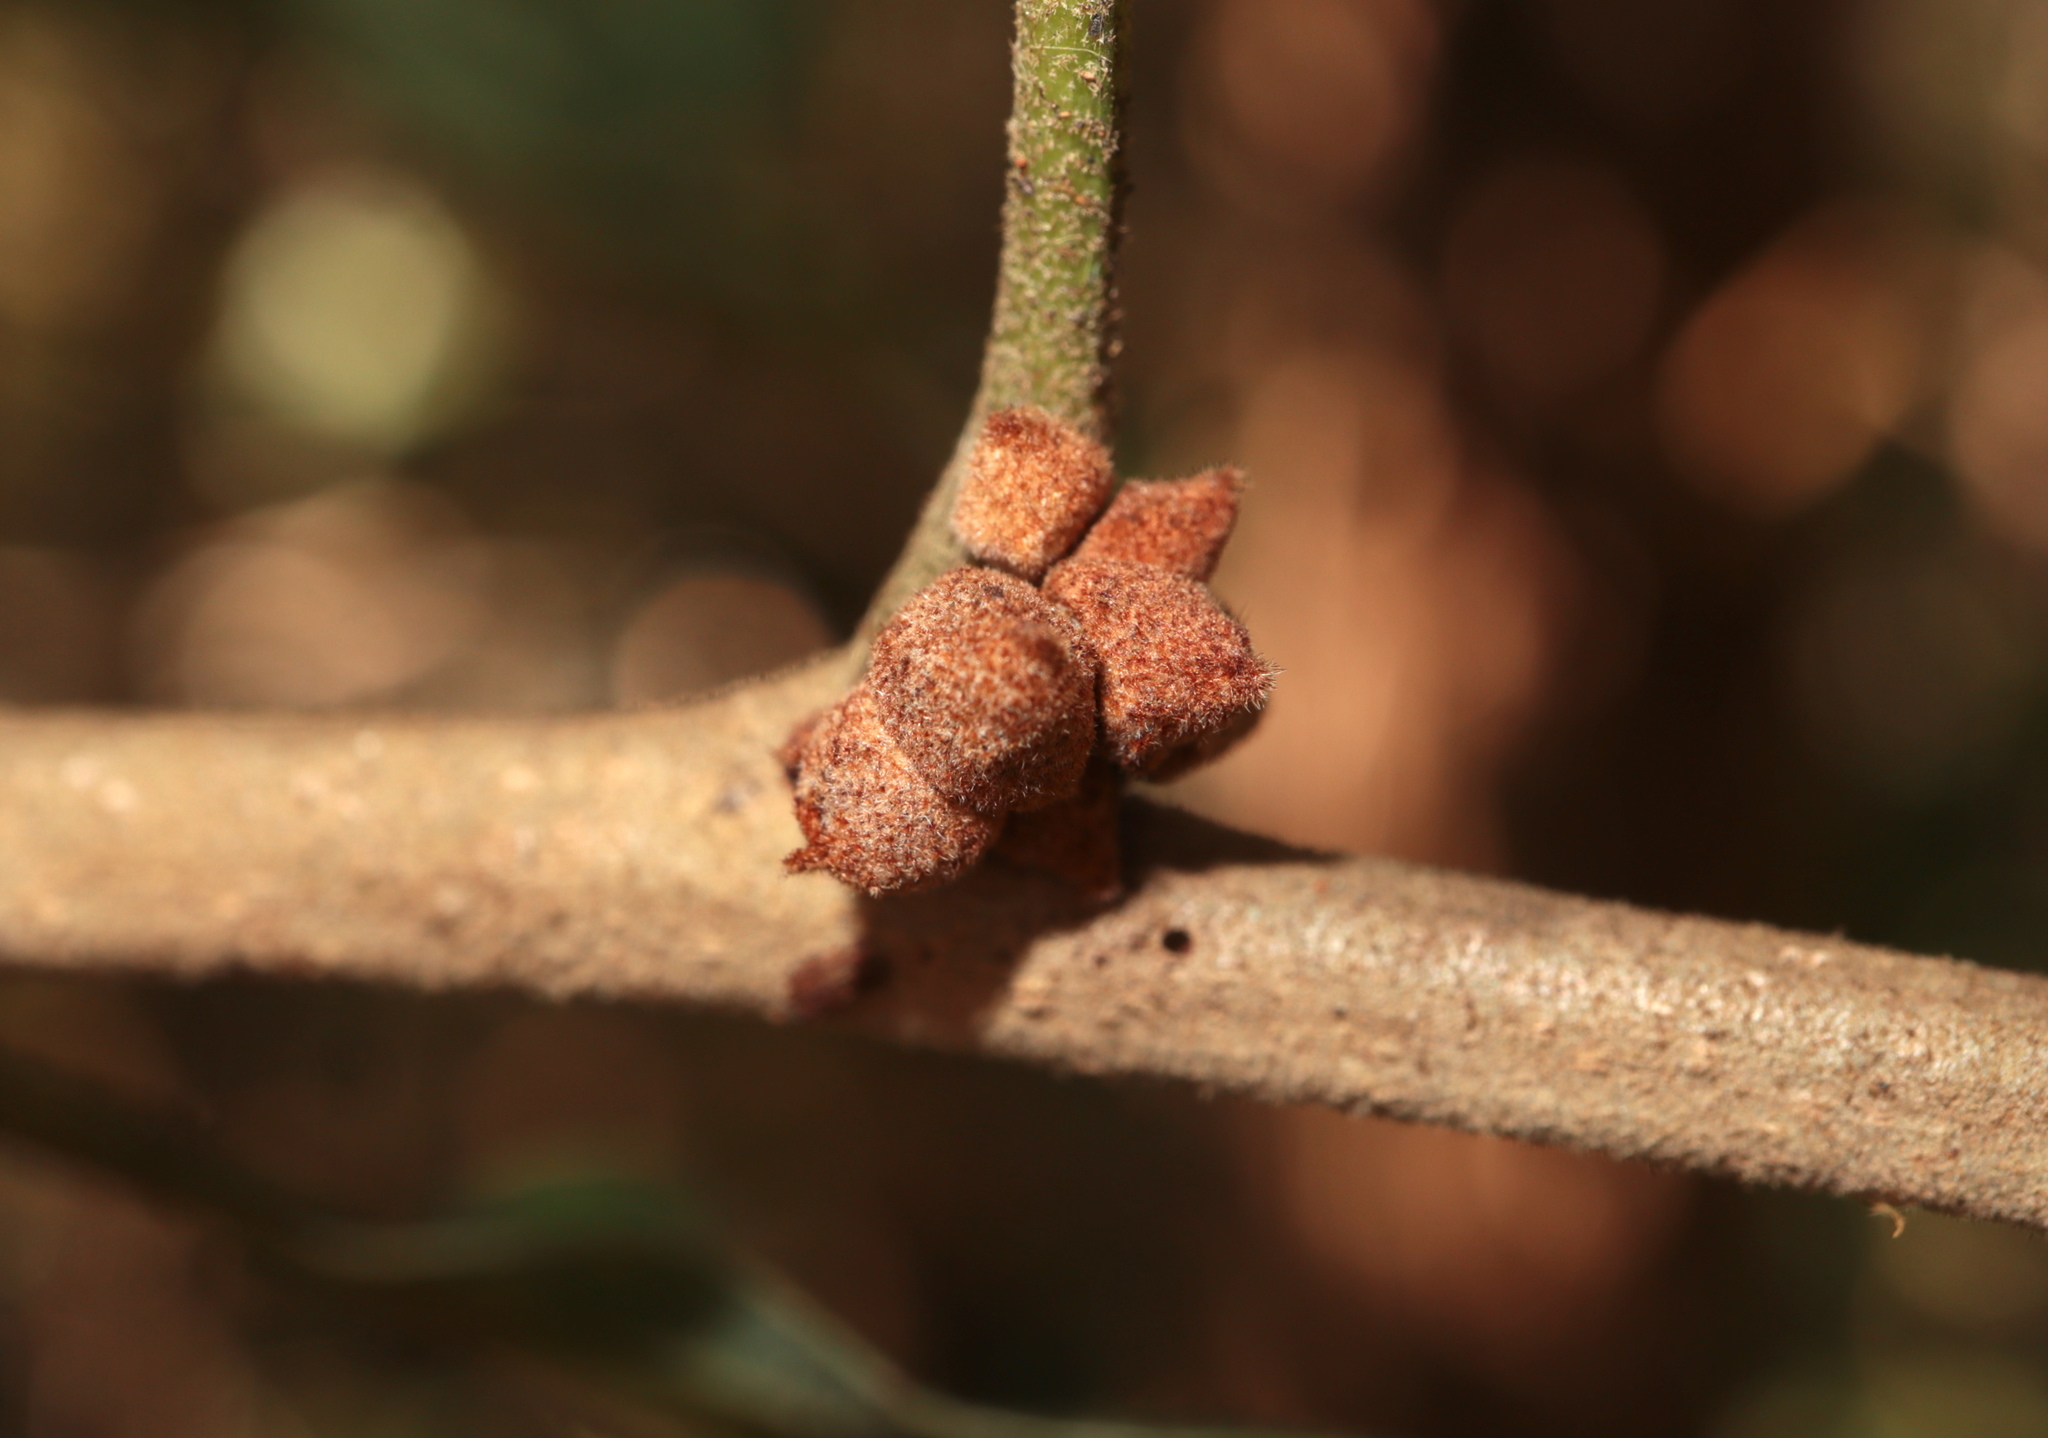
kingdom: Animalia
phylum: Arthropoda
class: Insecta
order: Hymenoptera
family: Cynipidae
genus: Andricus
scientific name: Andricus
